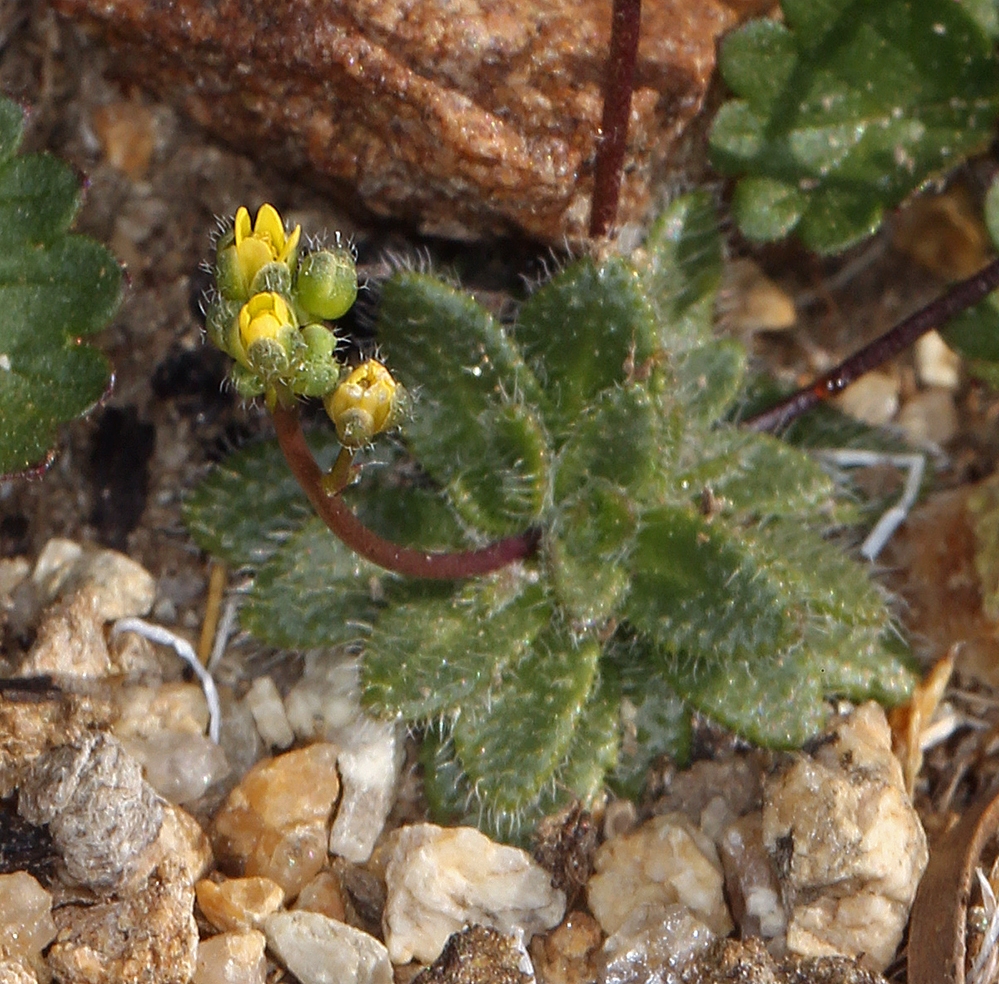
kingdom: Plantae
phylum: Tracheophyta
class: Magnoliopsida
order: Brassicales
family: Brassicaceae
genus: Draba
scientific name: Draba albertina
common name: Slender draba
